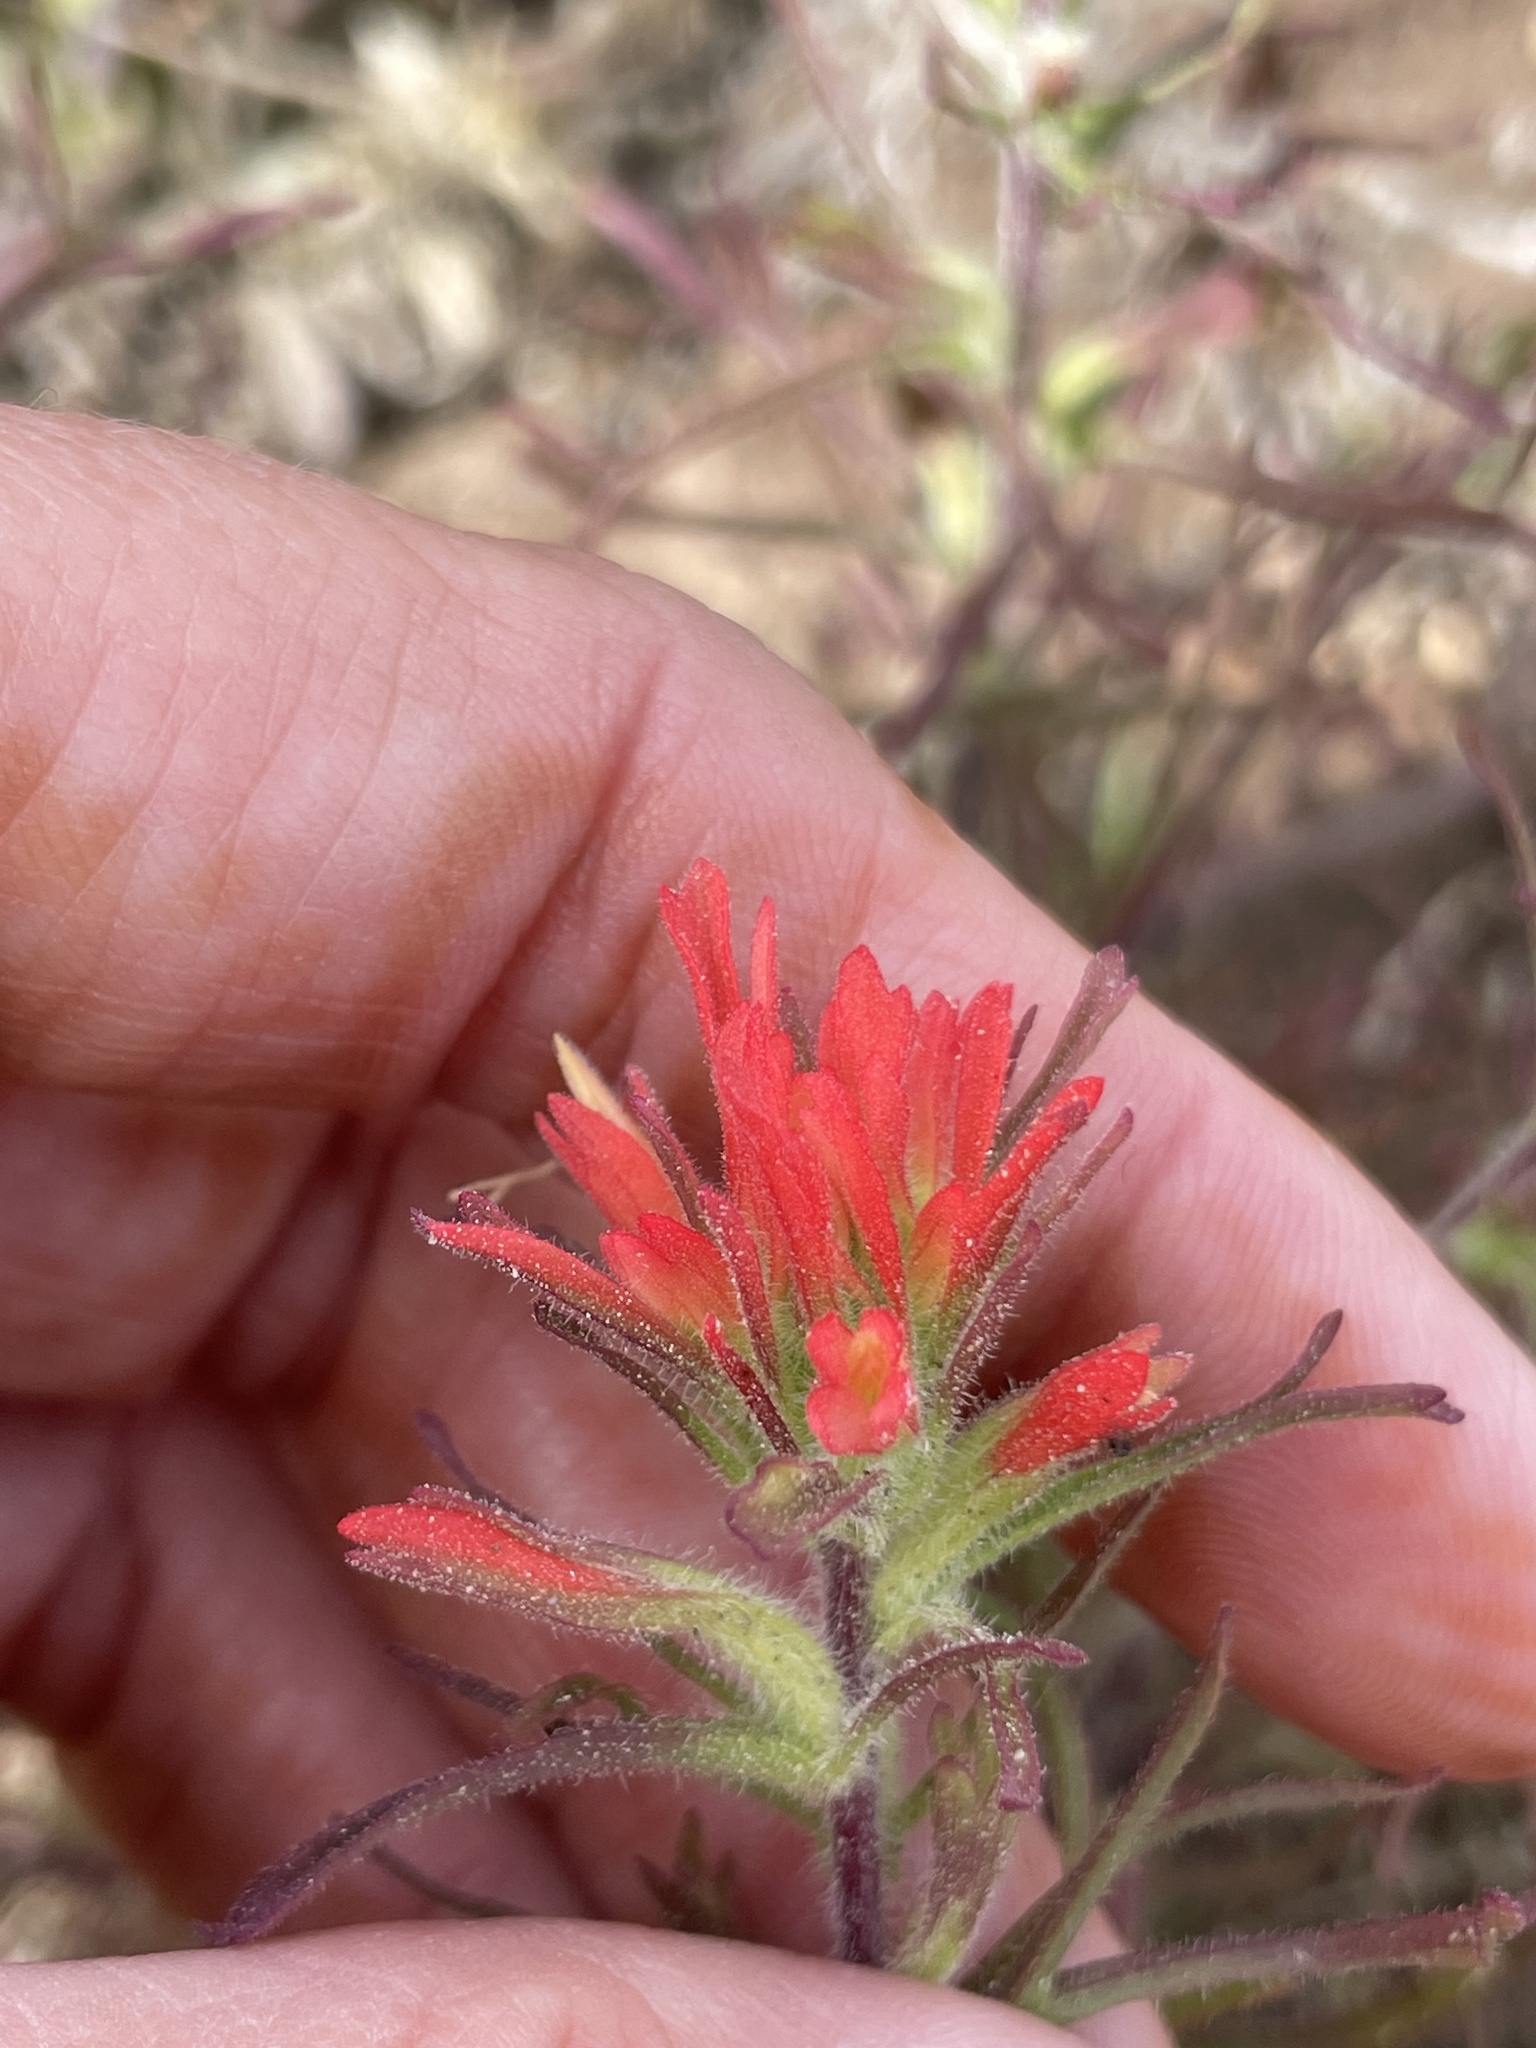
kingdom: Plantae
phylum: Tracheophyta
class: Magnoliopsida
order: Lamiales
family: Orobanchaceae
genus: Castilleja
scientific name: Castilleja bryantii
